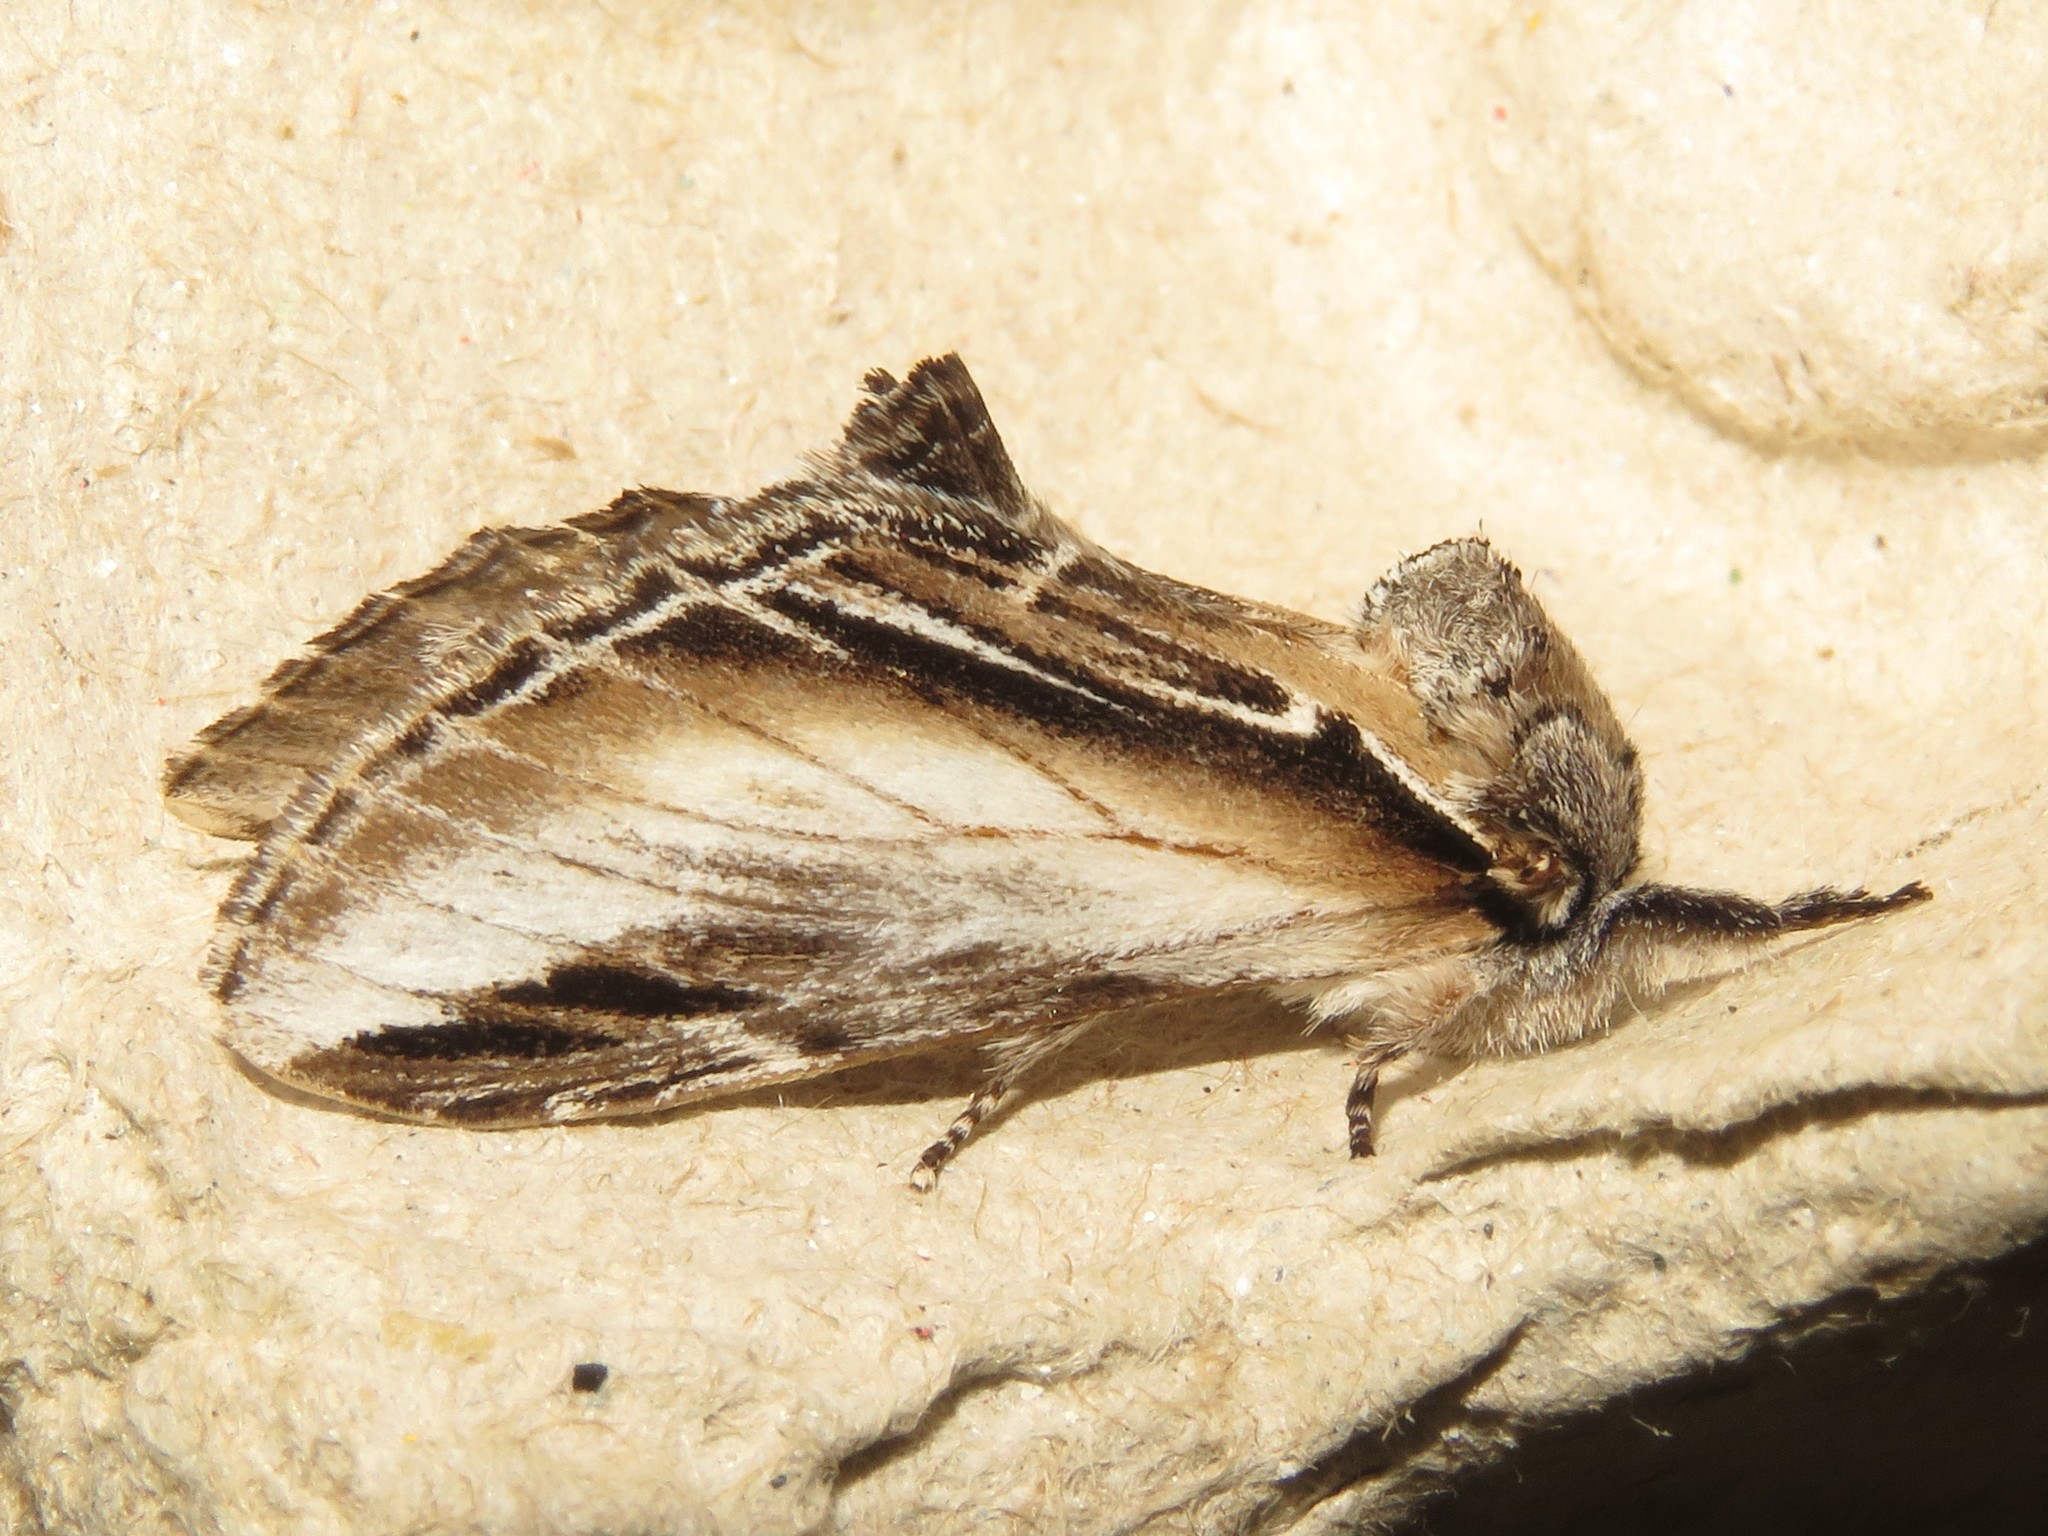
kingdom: Animalia
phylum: Arthropoda
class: Insecta
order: Lepidoptera
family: Notodontidae
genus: Pheosia
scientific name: Pheosia rimosa
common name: Black-rimmed prominent
